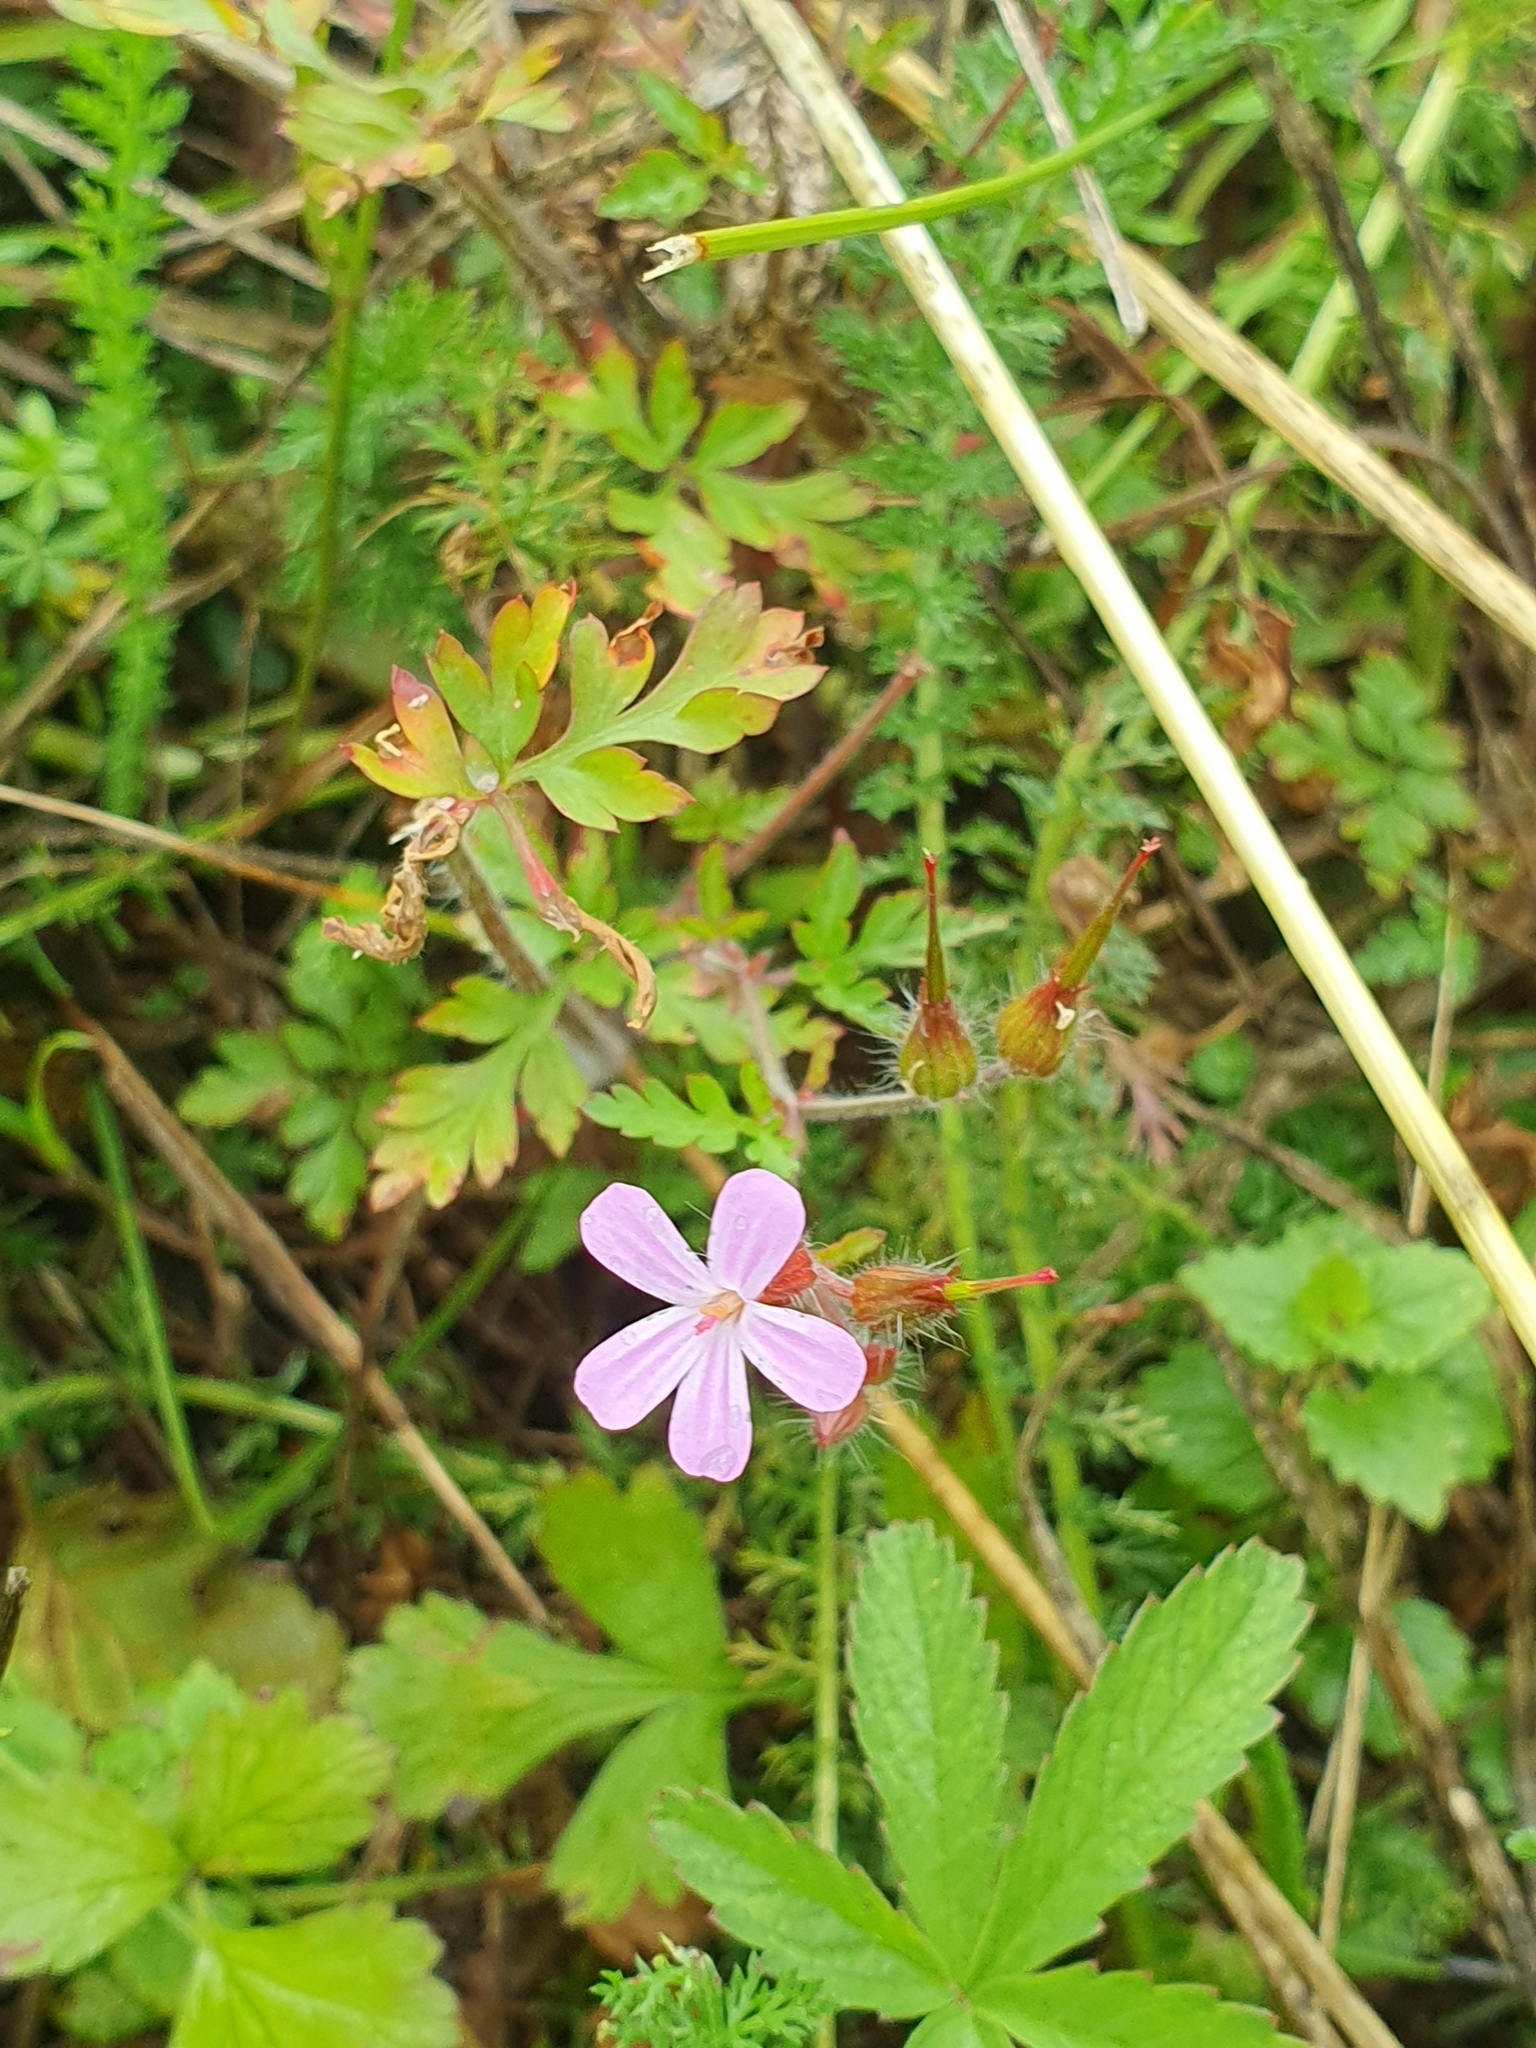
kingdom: Plantae
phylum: Tracheophyta
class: Magnoliopsida
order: Geraniales
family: Geraniaceae
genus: Geranium
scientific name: Geranium robertianum
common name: Herb-robert
